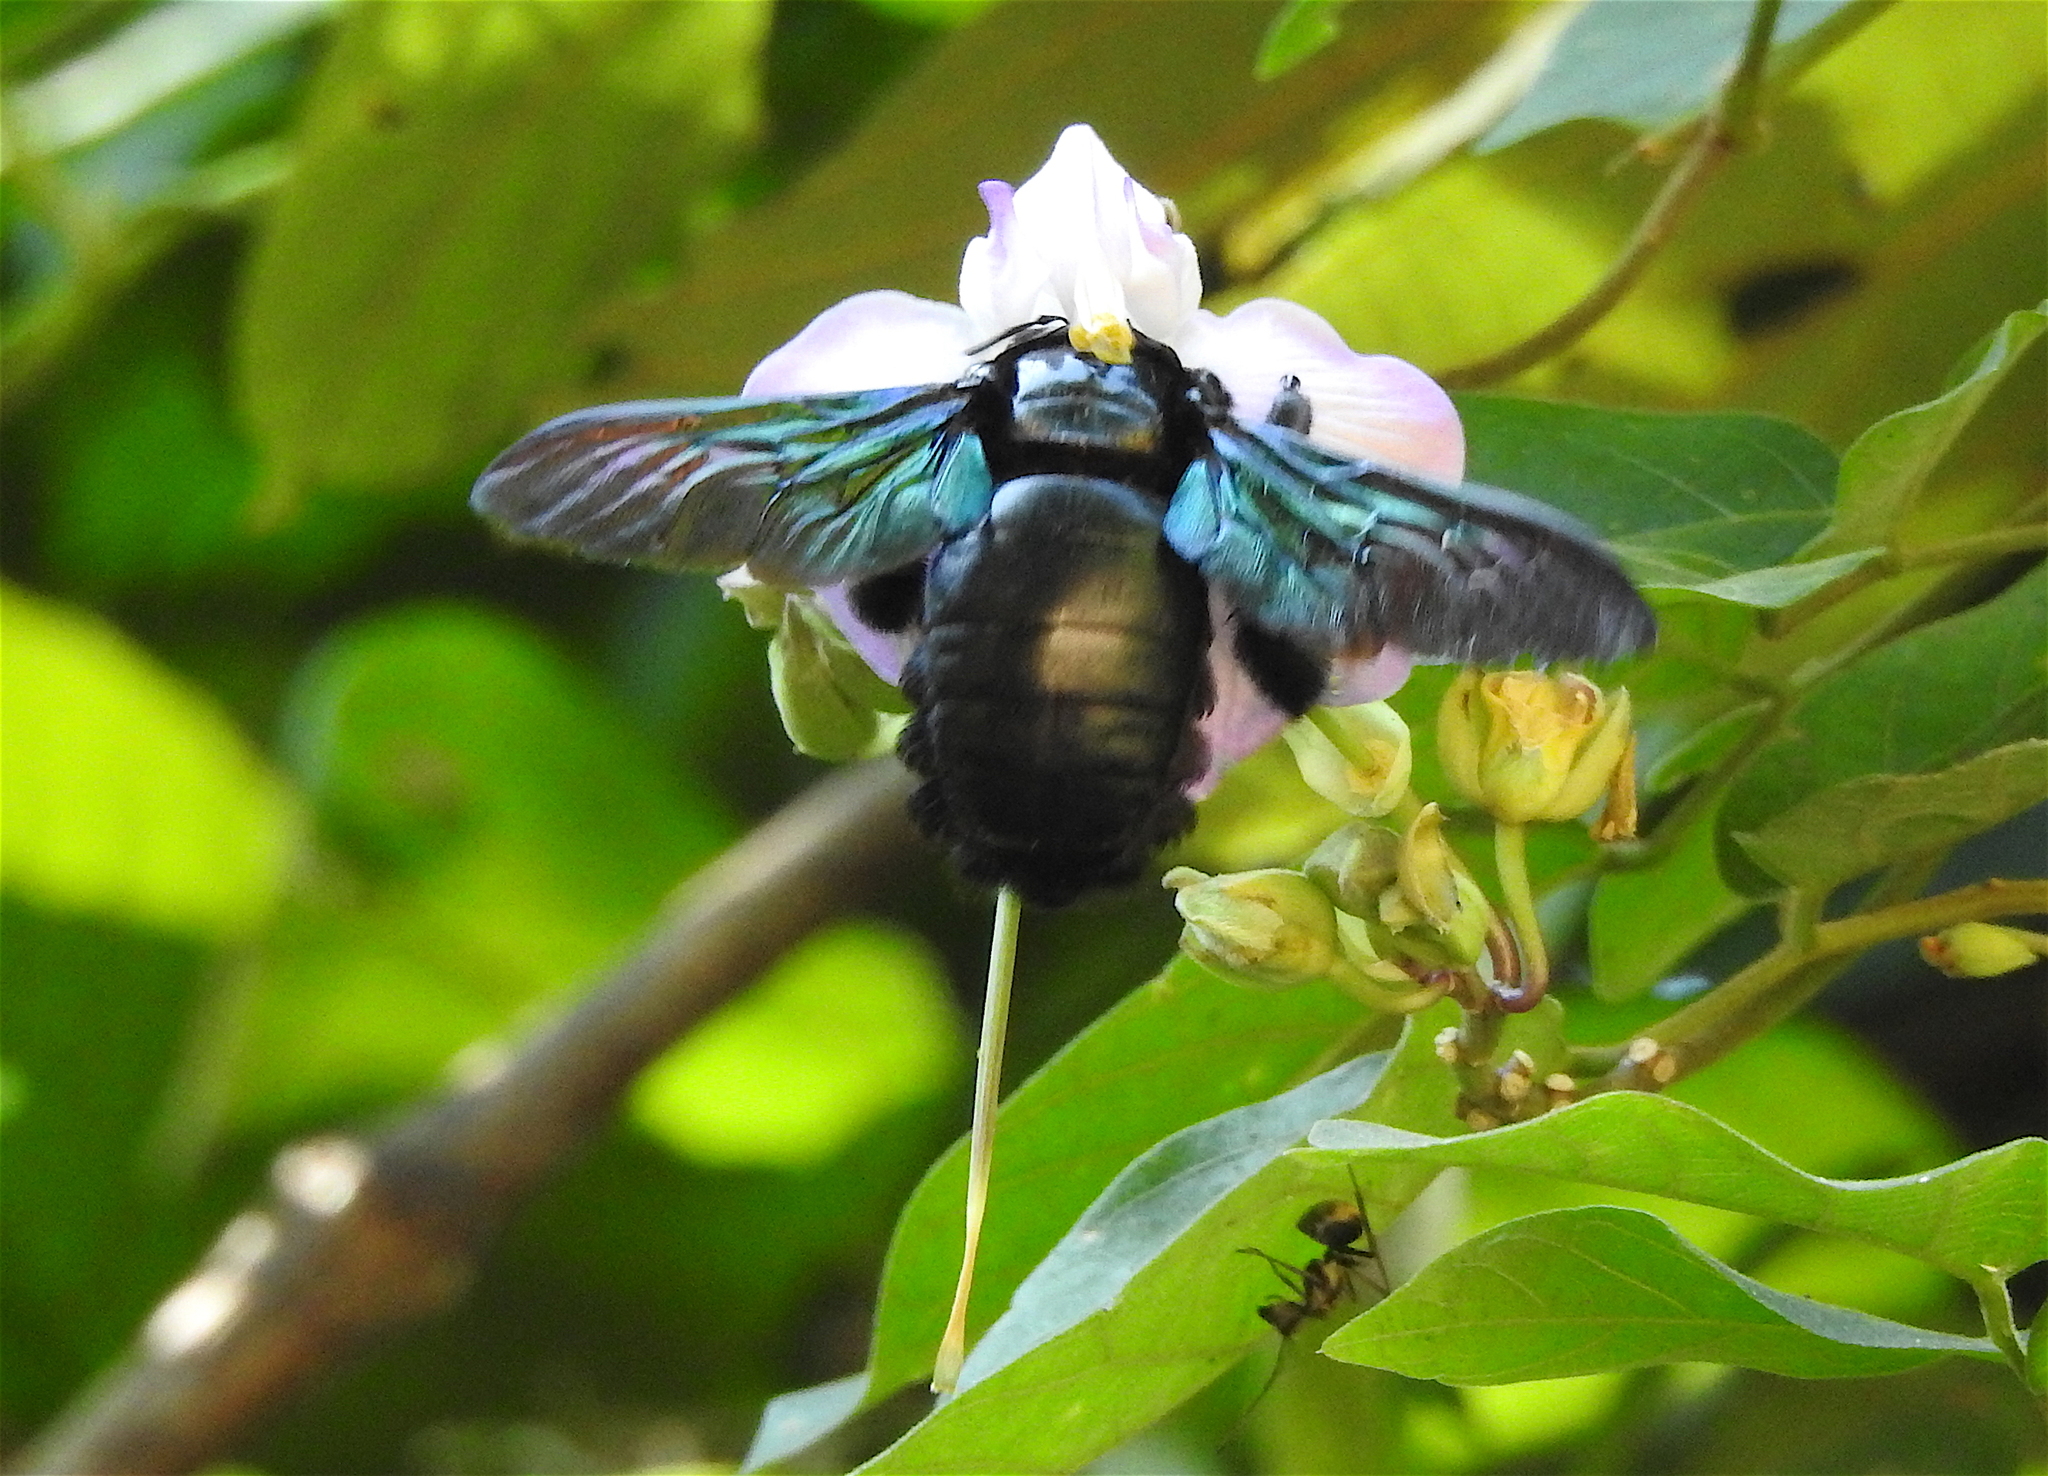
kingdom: Animalia
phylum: Arthropoda
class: Insecta
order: Hymenoptera
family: Apidae
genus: Xylocopa
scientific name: Xylocopa latipes
